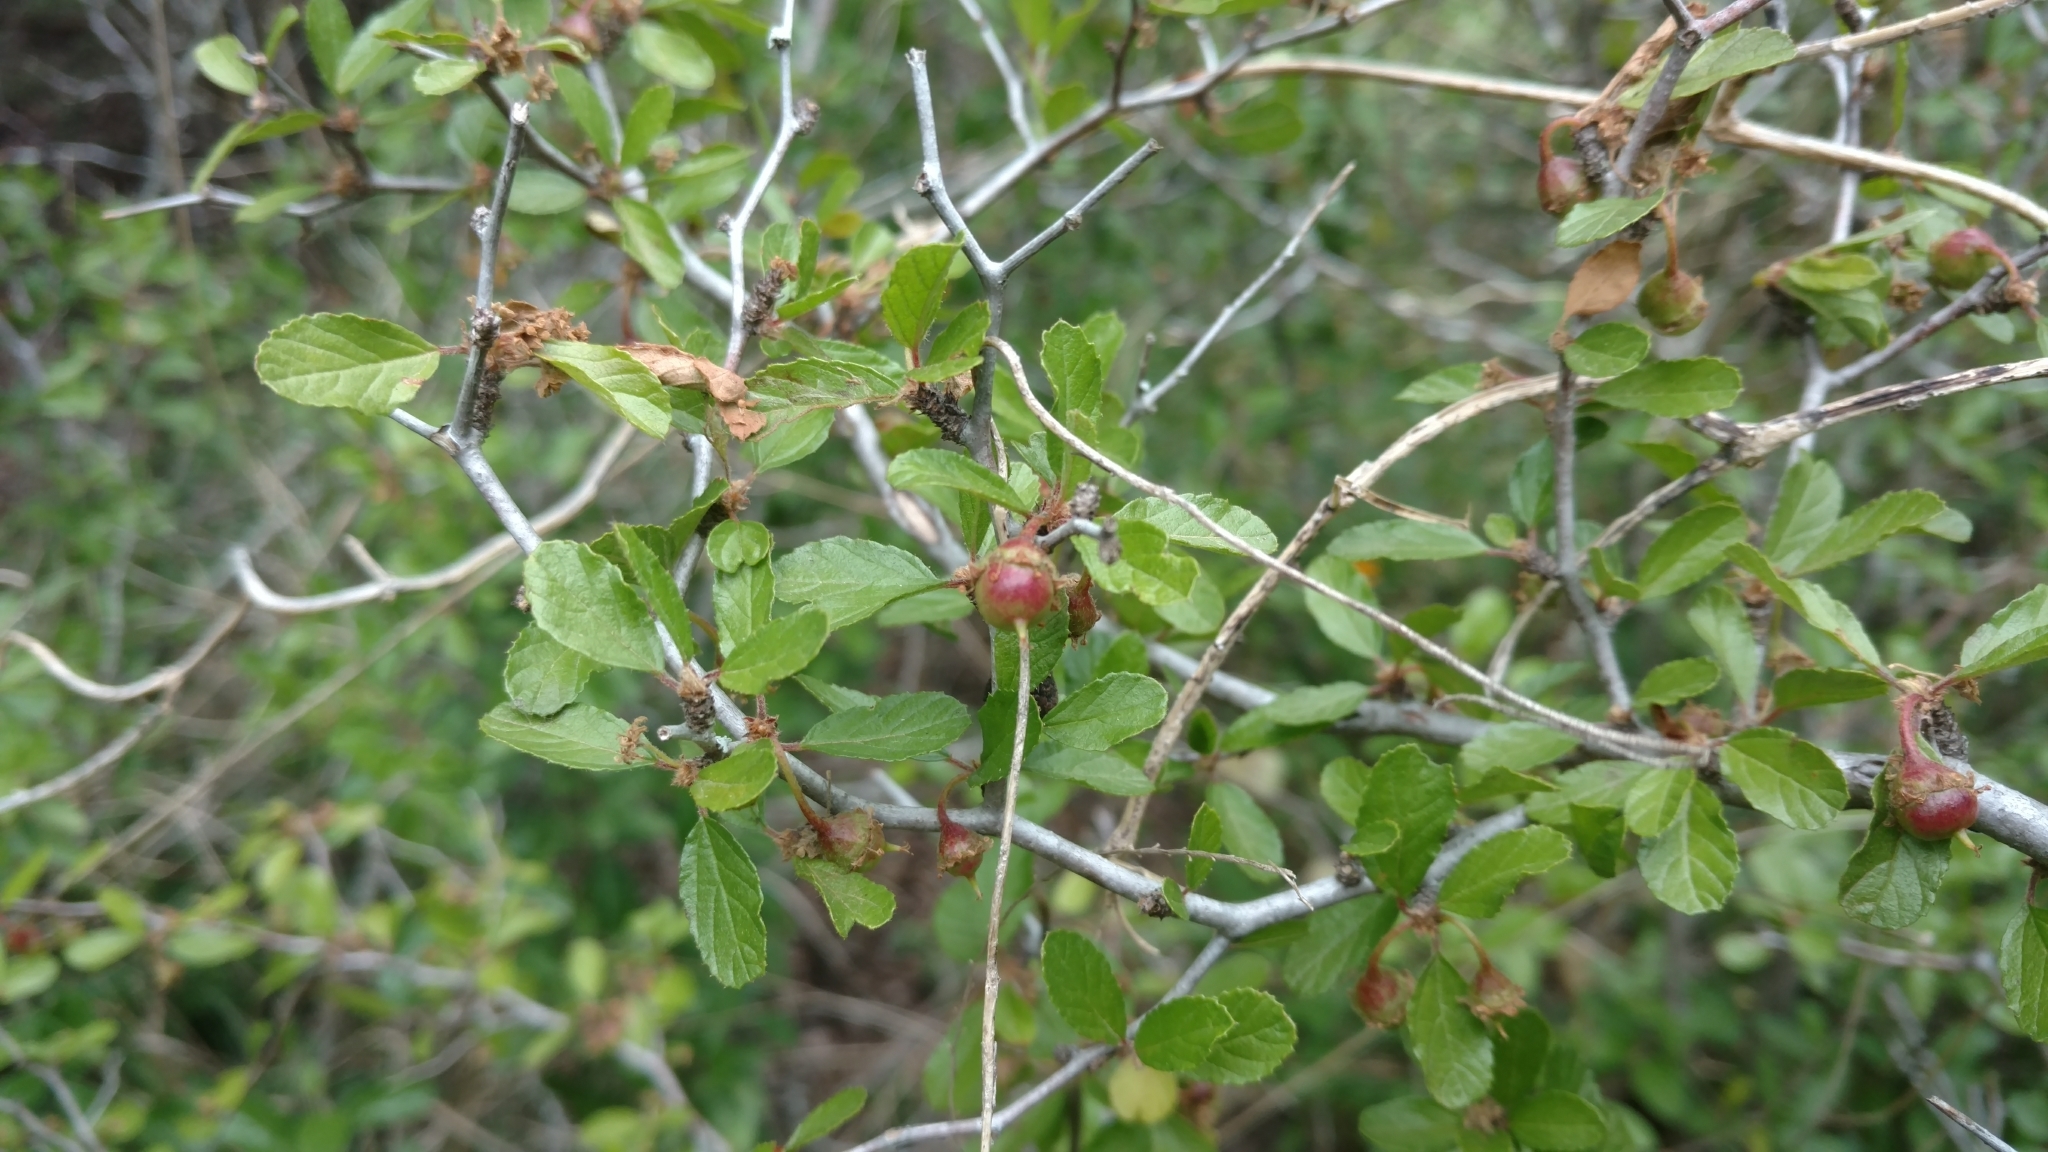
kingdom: Plantae
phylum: Tracheophyta
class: Magnoliopsida
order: Rosales
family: Rhamnaceae
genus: Colubrina
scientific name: Colubrina texensis
